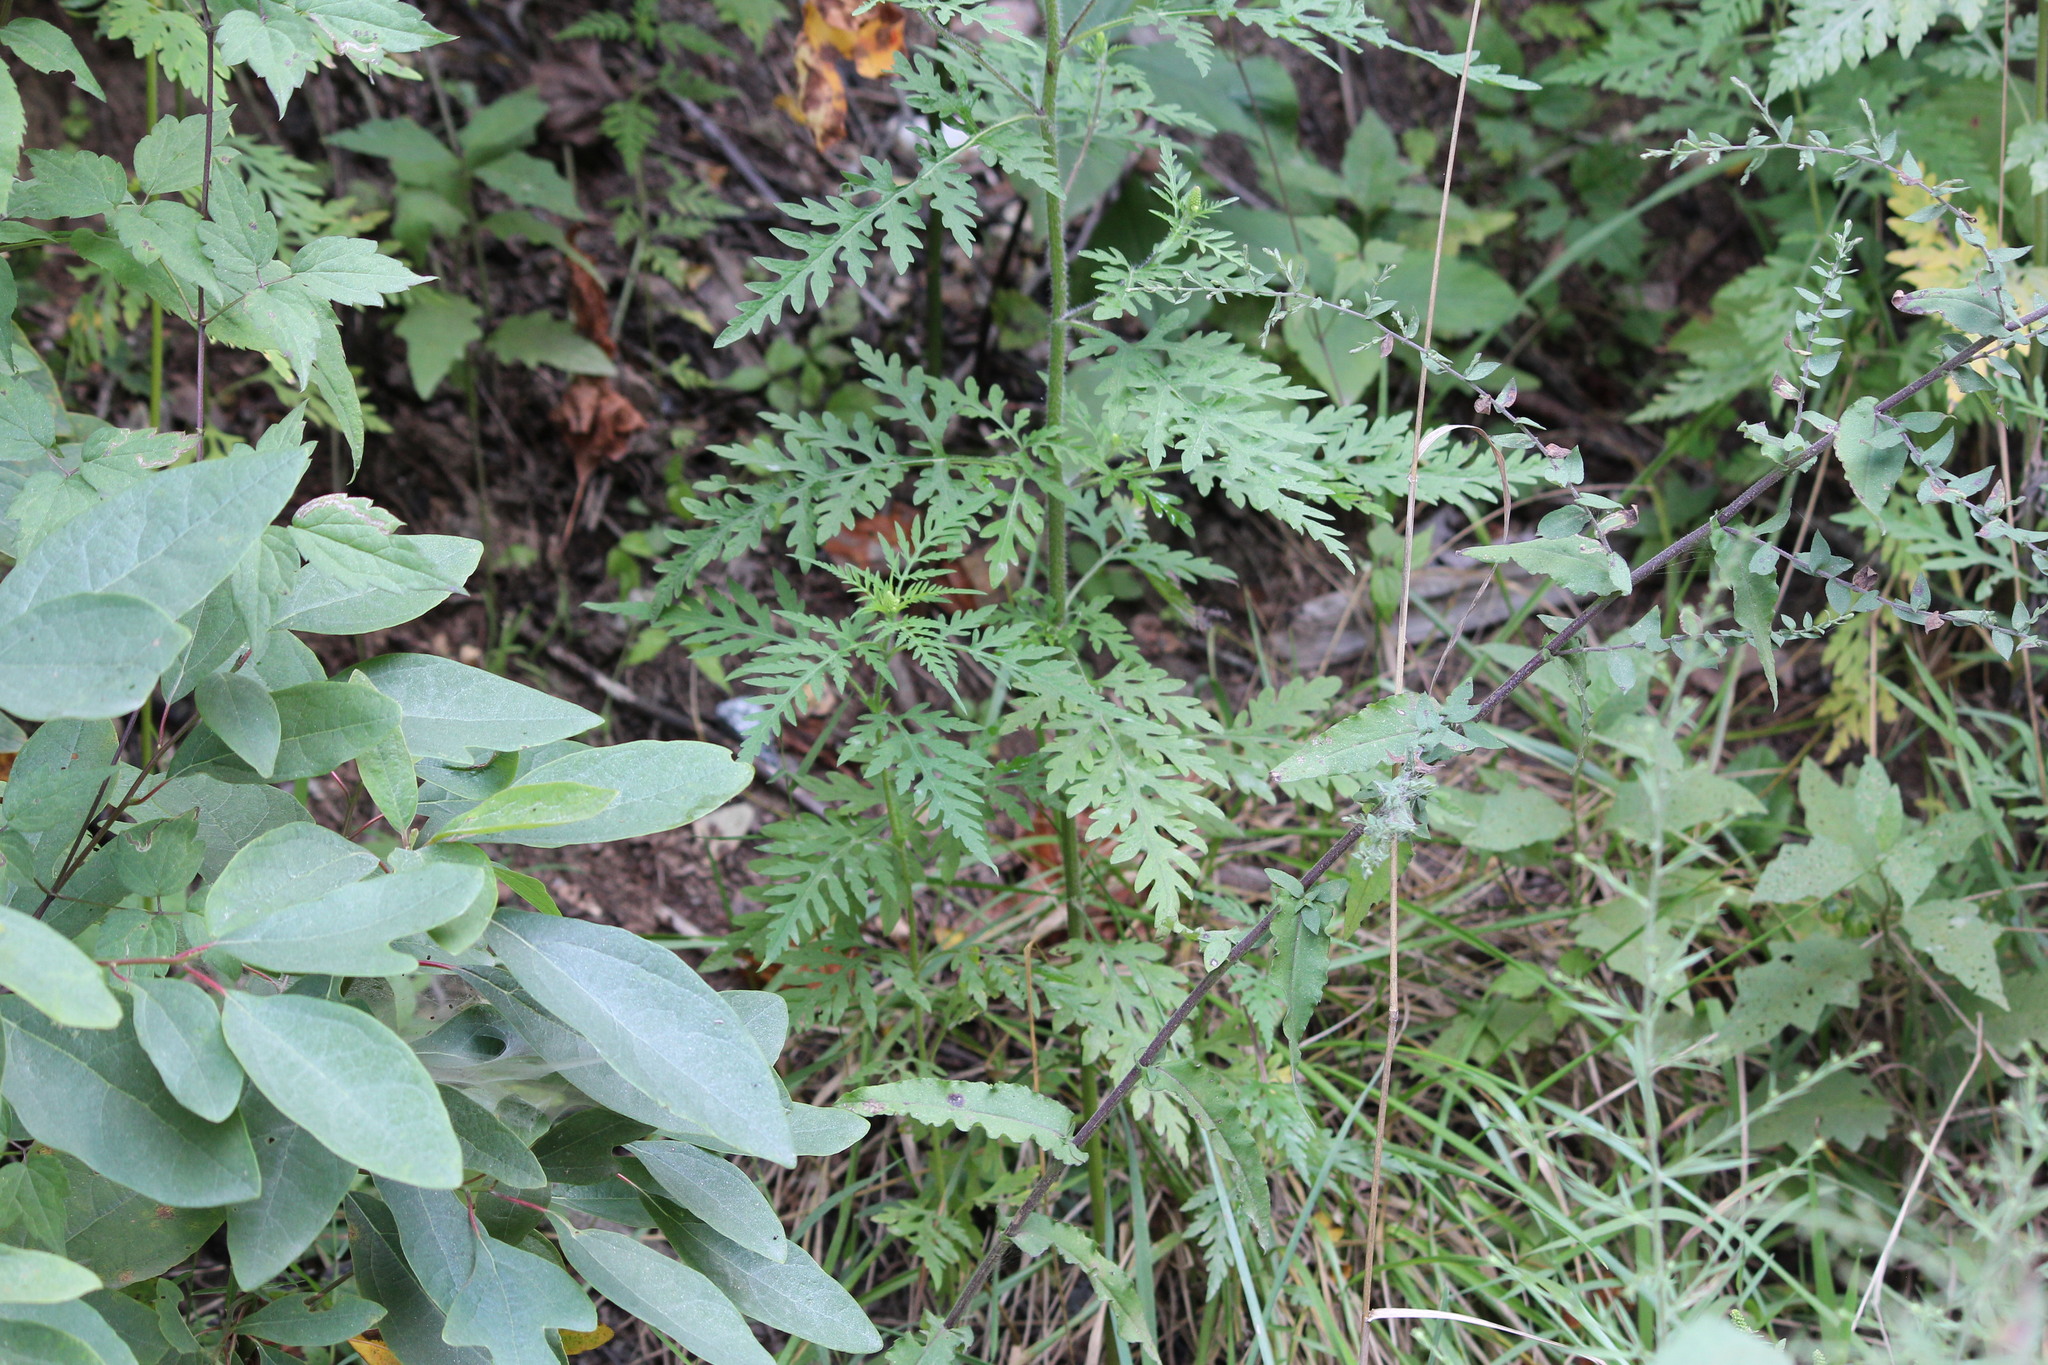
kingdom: Plantae
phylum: Tracheophyta
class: Magnoliopsida
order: Asterales
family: Asteraceae
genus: Ambrosia
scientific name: Ambrosia artemisiifolia
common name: Annual ragweed
